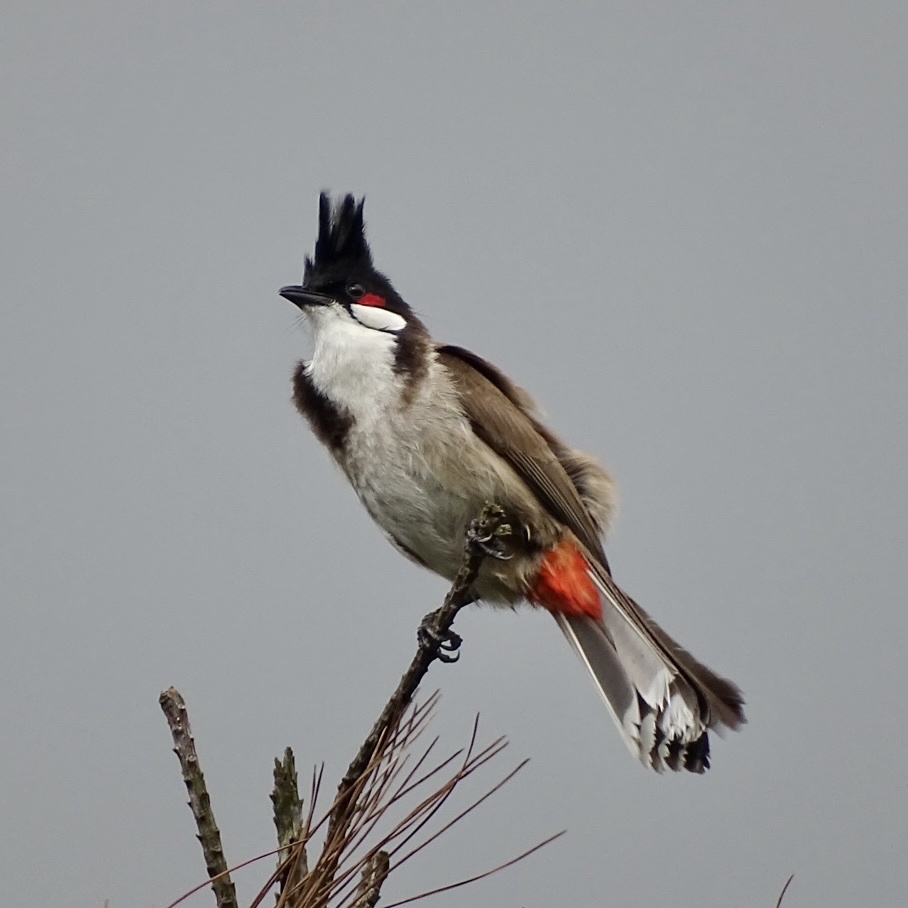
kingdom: Animalia
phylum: Chordata
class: Aves
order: Passeriformes
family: Pycnonotidae
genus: Pycnonotus
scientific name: Pycnonotus jocosus
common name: Red-whiskered bulbul
